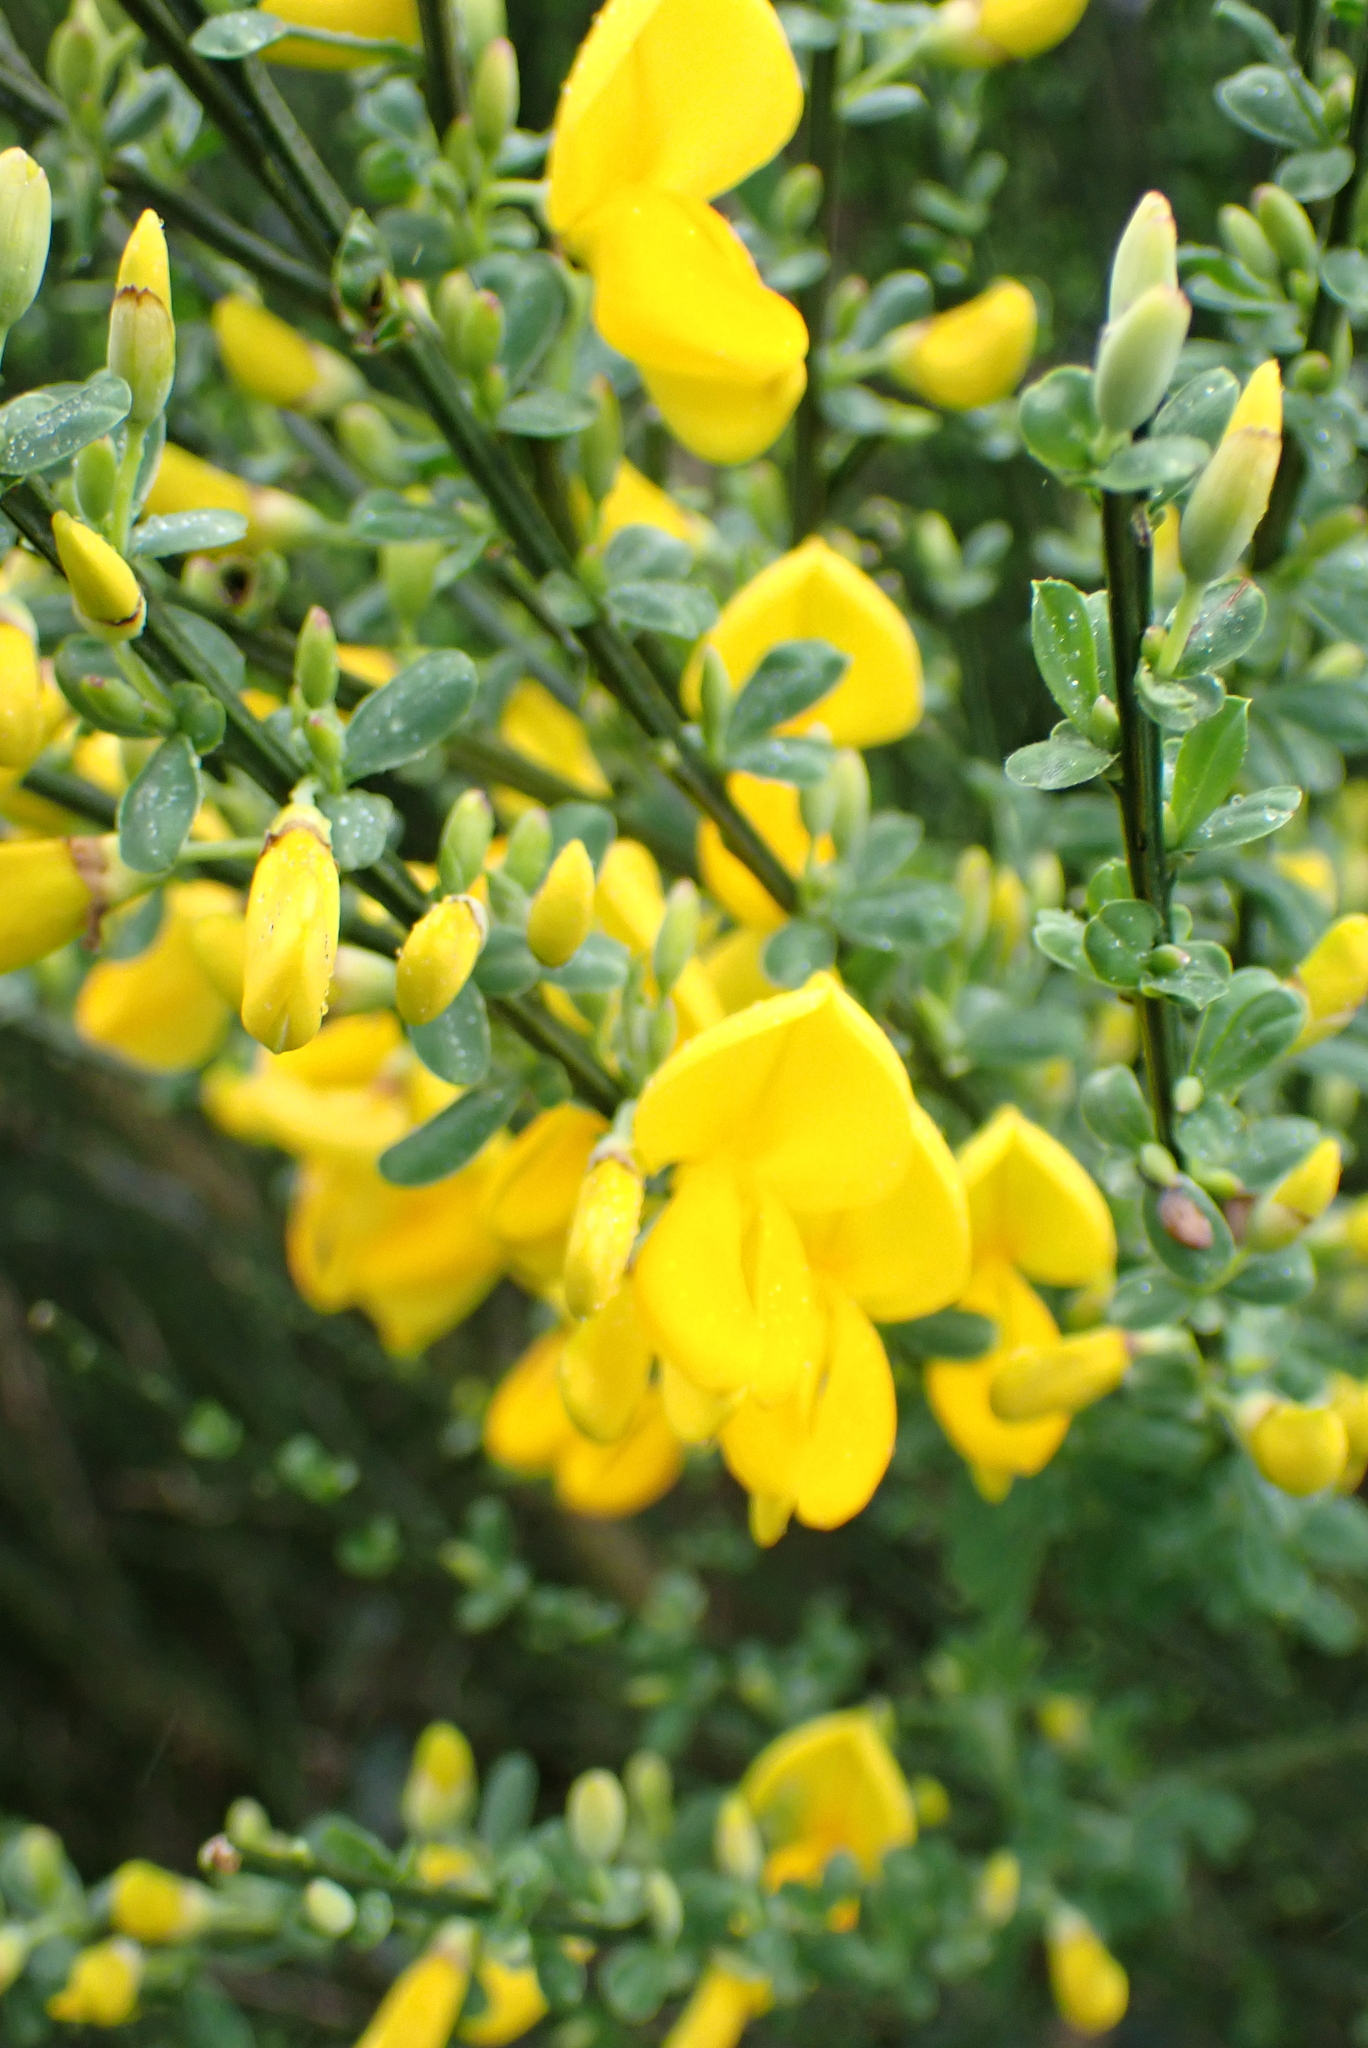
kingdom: Plantae
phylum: Tracheophyta
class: Magnoliopsida
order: Fabales
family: Fabaceae
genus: Cytisus
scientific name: Cytisus scoparius
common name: Scotch broom
